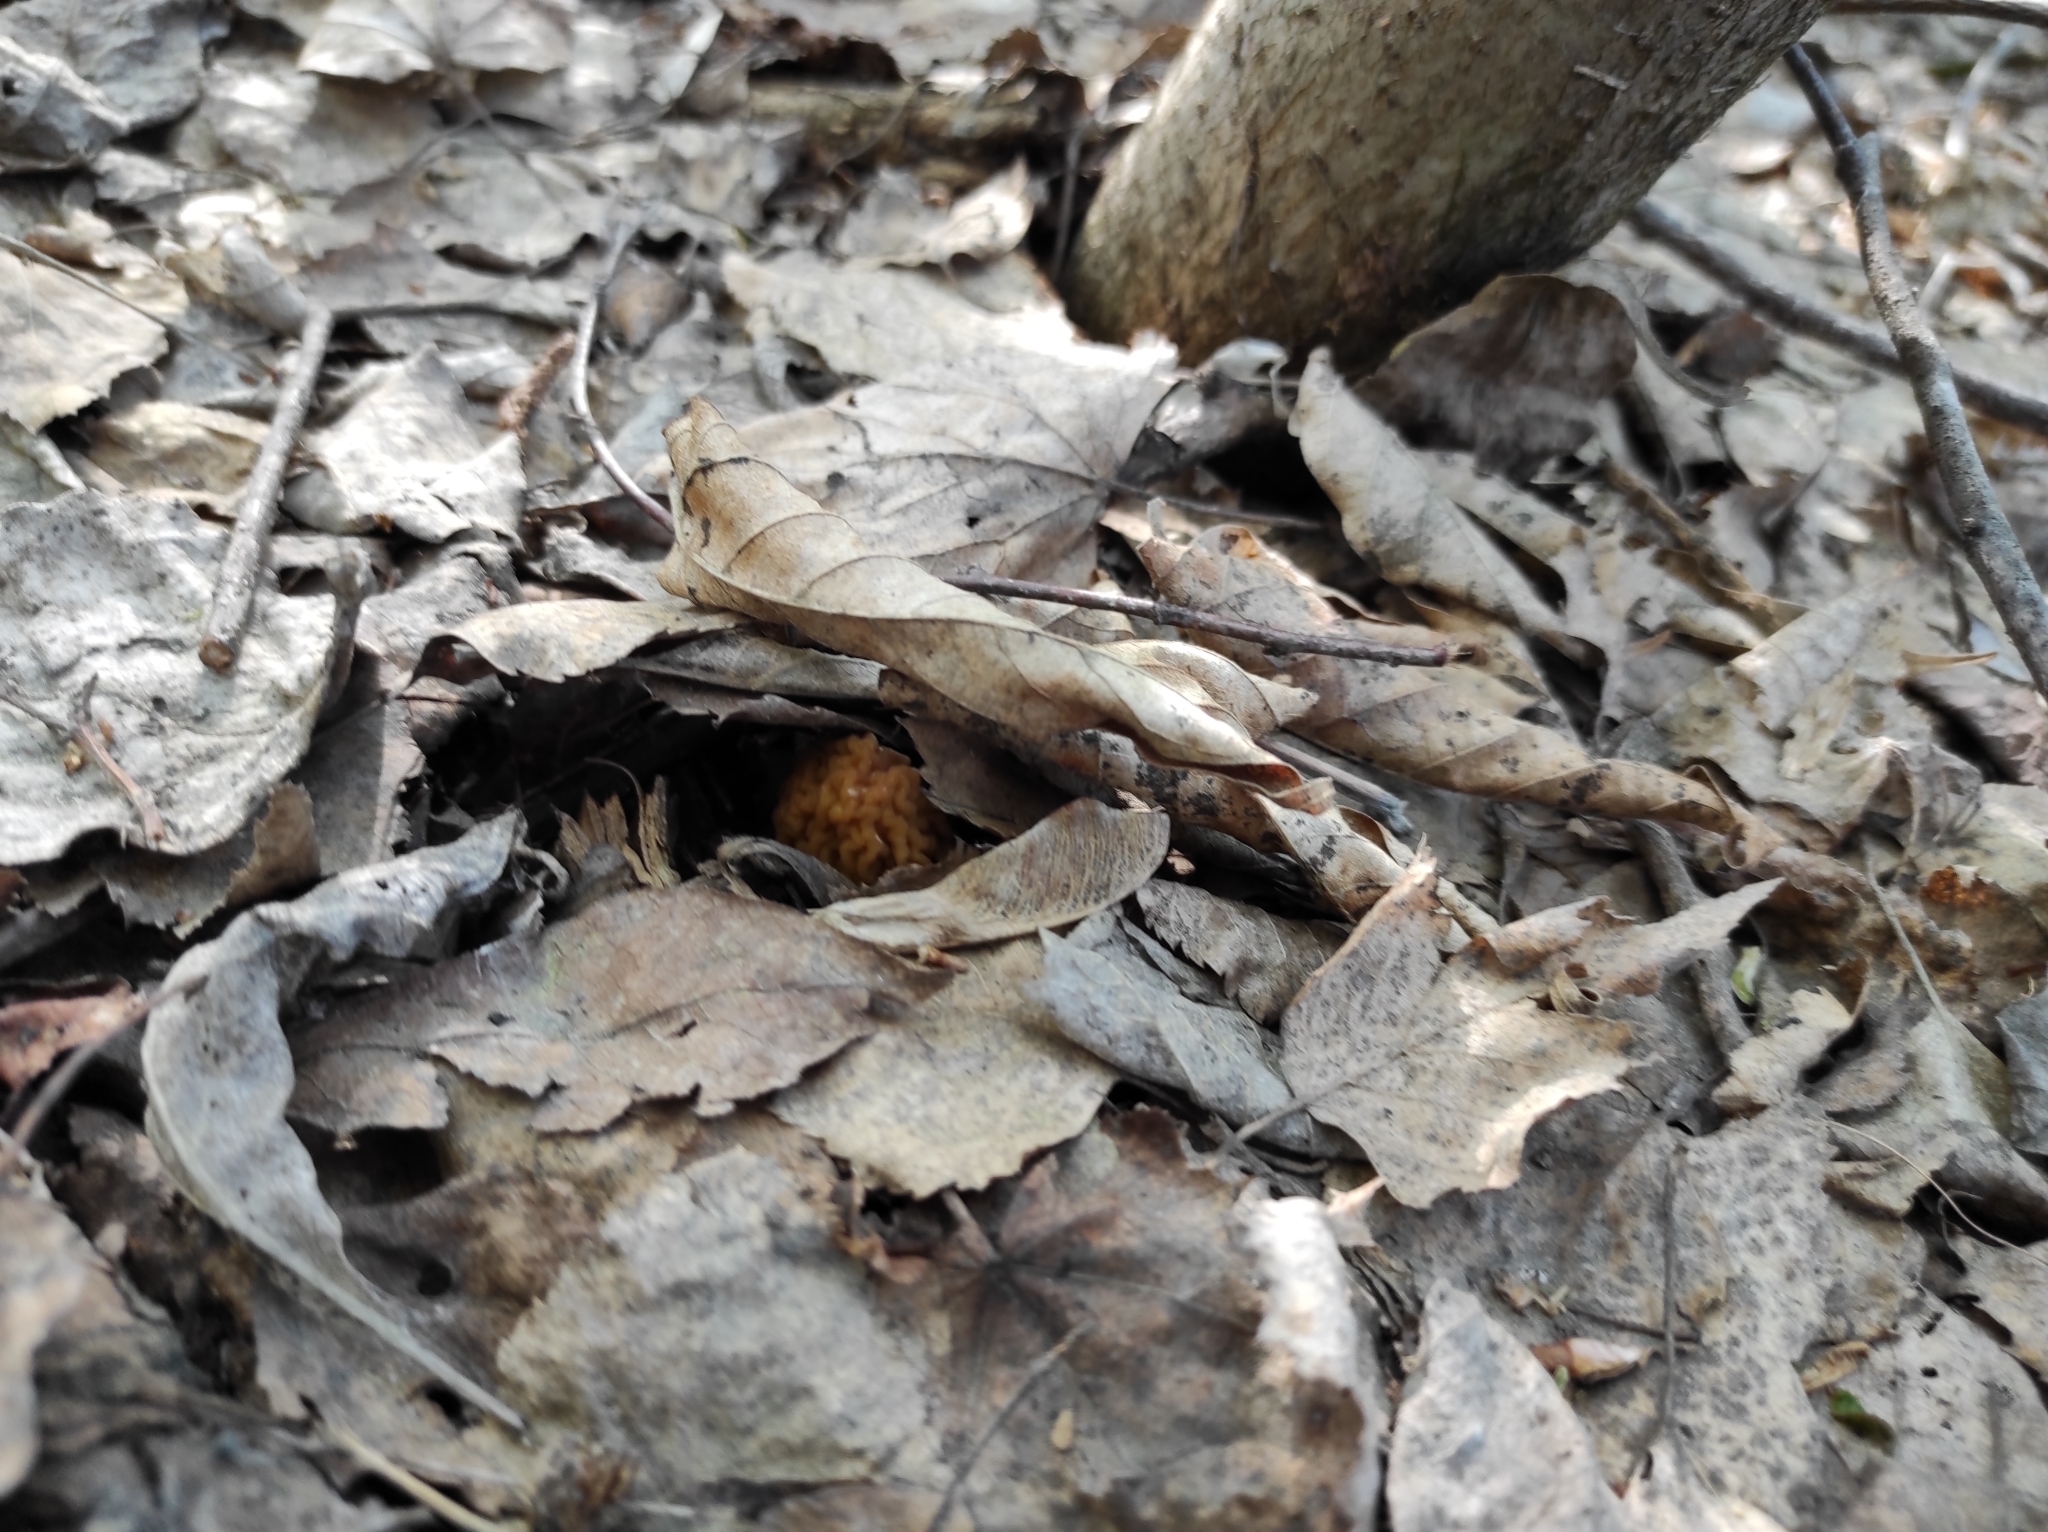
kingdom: Fungi
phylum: Ascomycota
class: Pezizomycetes
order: Pezizales
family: Morchellaceae
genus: Verpa
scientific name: Verpa bohemica
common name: Wrinkled thimble morel
